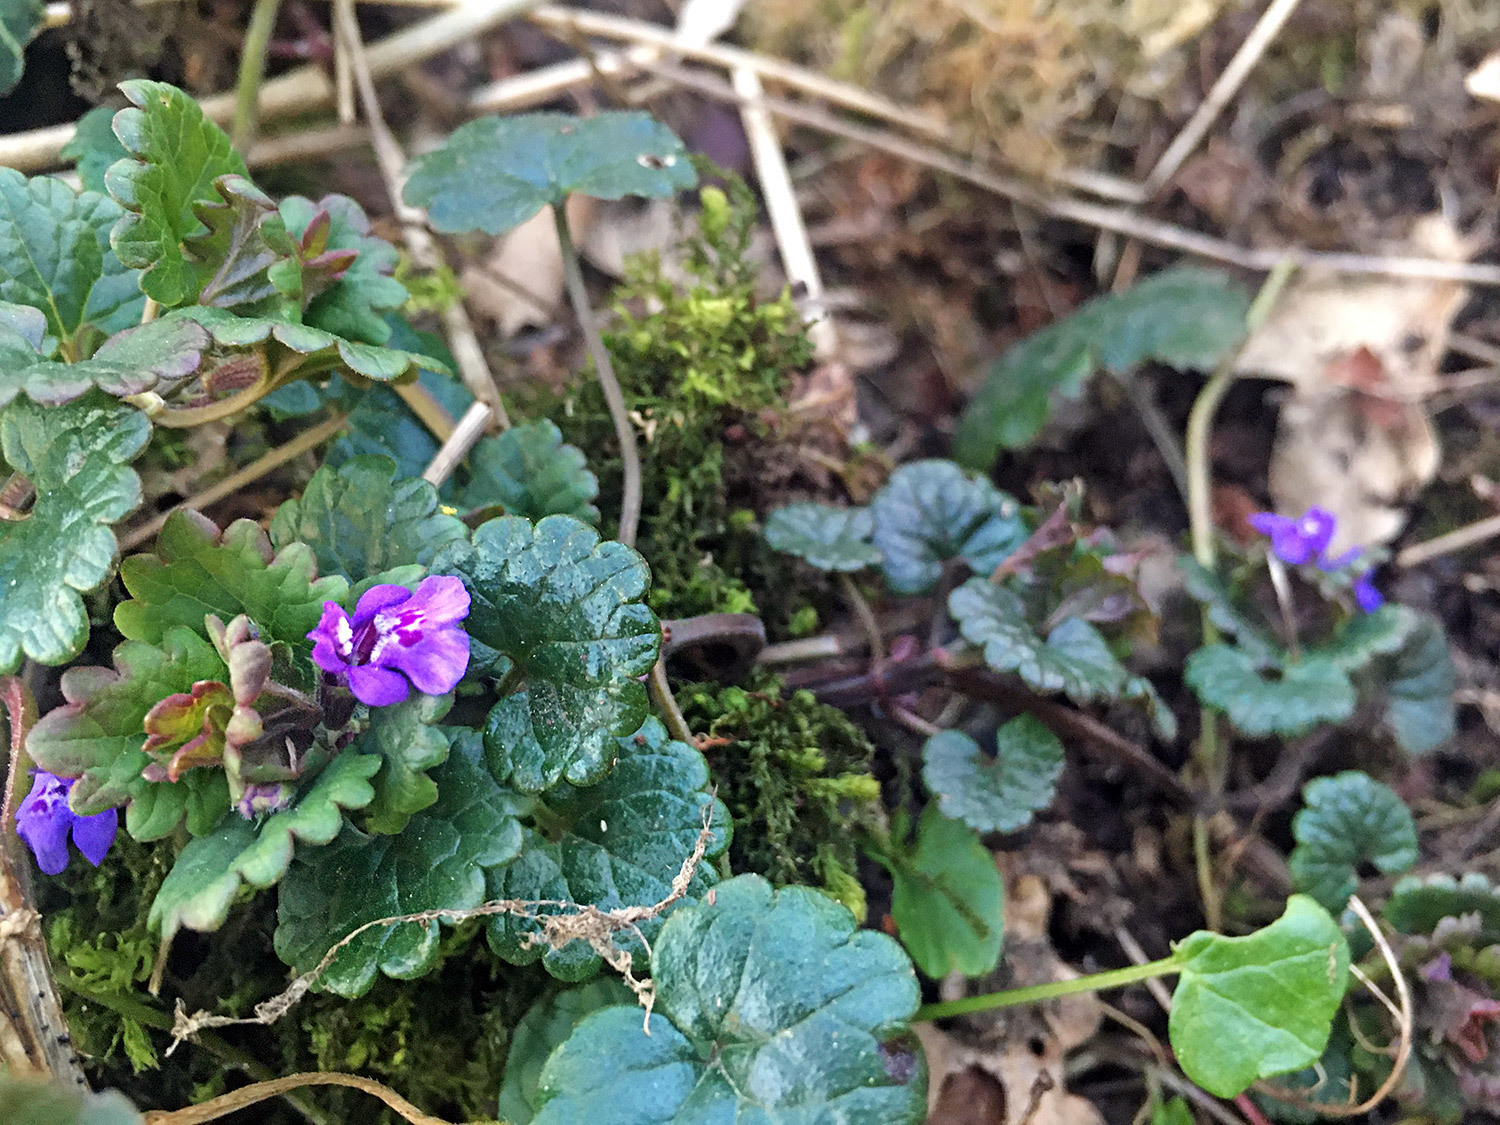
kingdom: Plantae
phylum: Tracheophyta
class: Magnoliopsida
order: Lamiales
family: Lamiaceae
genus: Glechoma
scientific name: Glechoma hederacea
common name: Ground ivy
